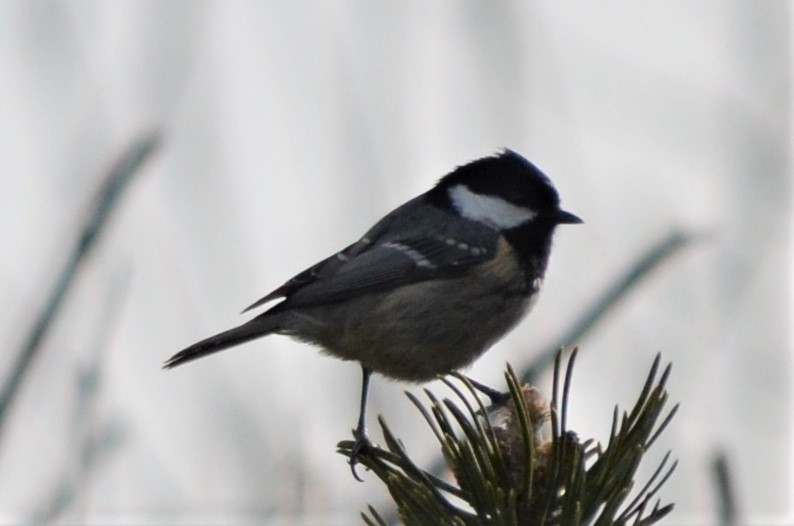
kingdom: Animalia
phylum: Chordata
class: Aves
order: Passeriformes
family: Paridae
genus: Periparus
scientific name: Periparus ater
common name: Coal tit
